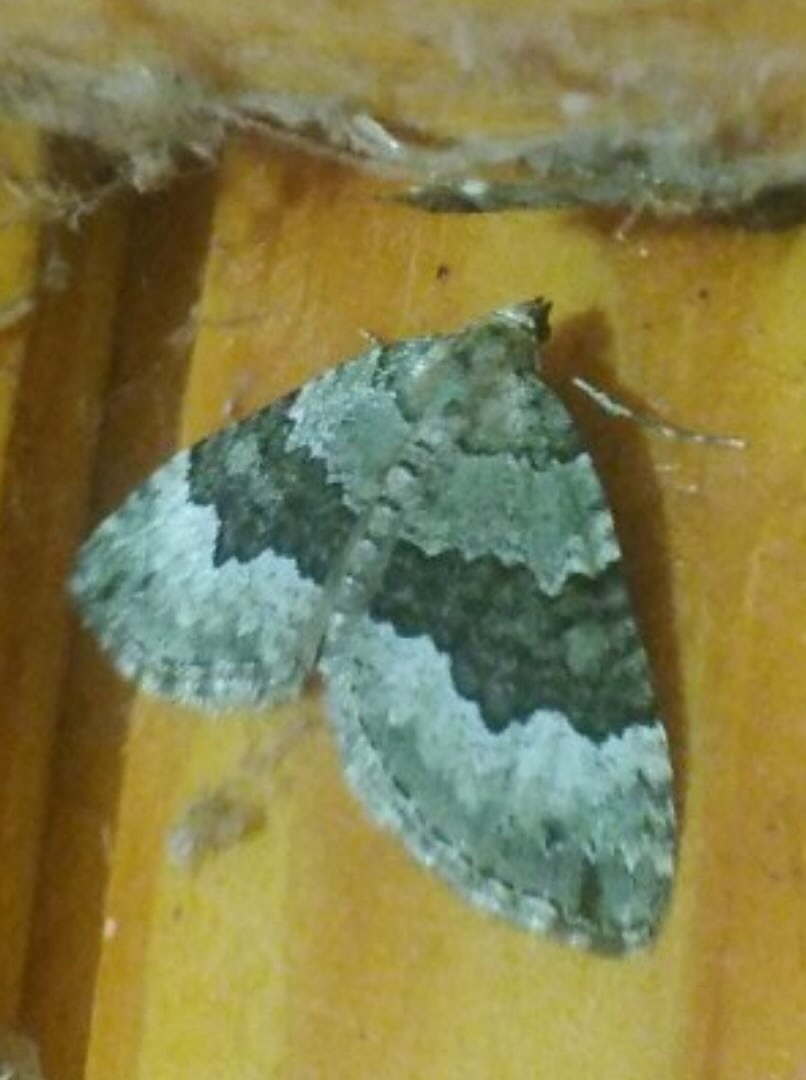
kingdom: Animalia
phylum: Arthropoda
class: Insecta
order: Lepidoptera
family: Geometridae
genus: Colostygia
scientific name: Colostygia aptata
